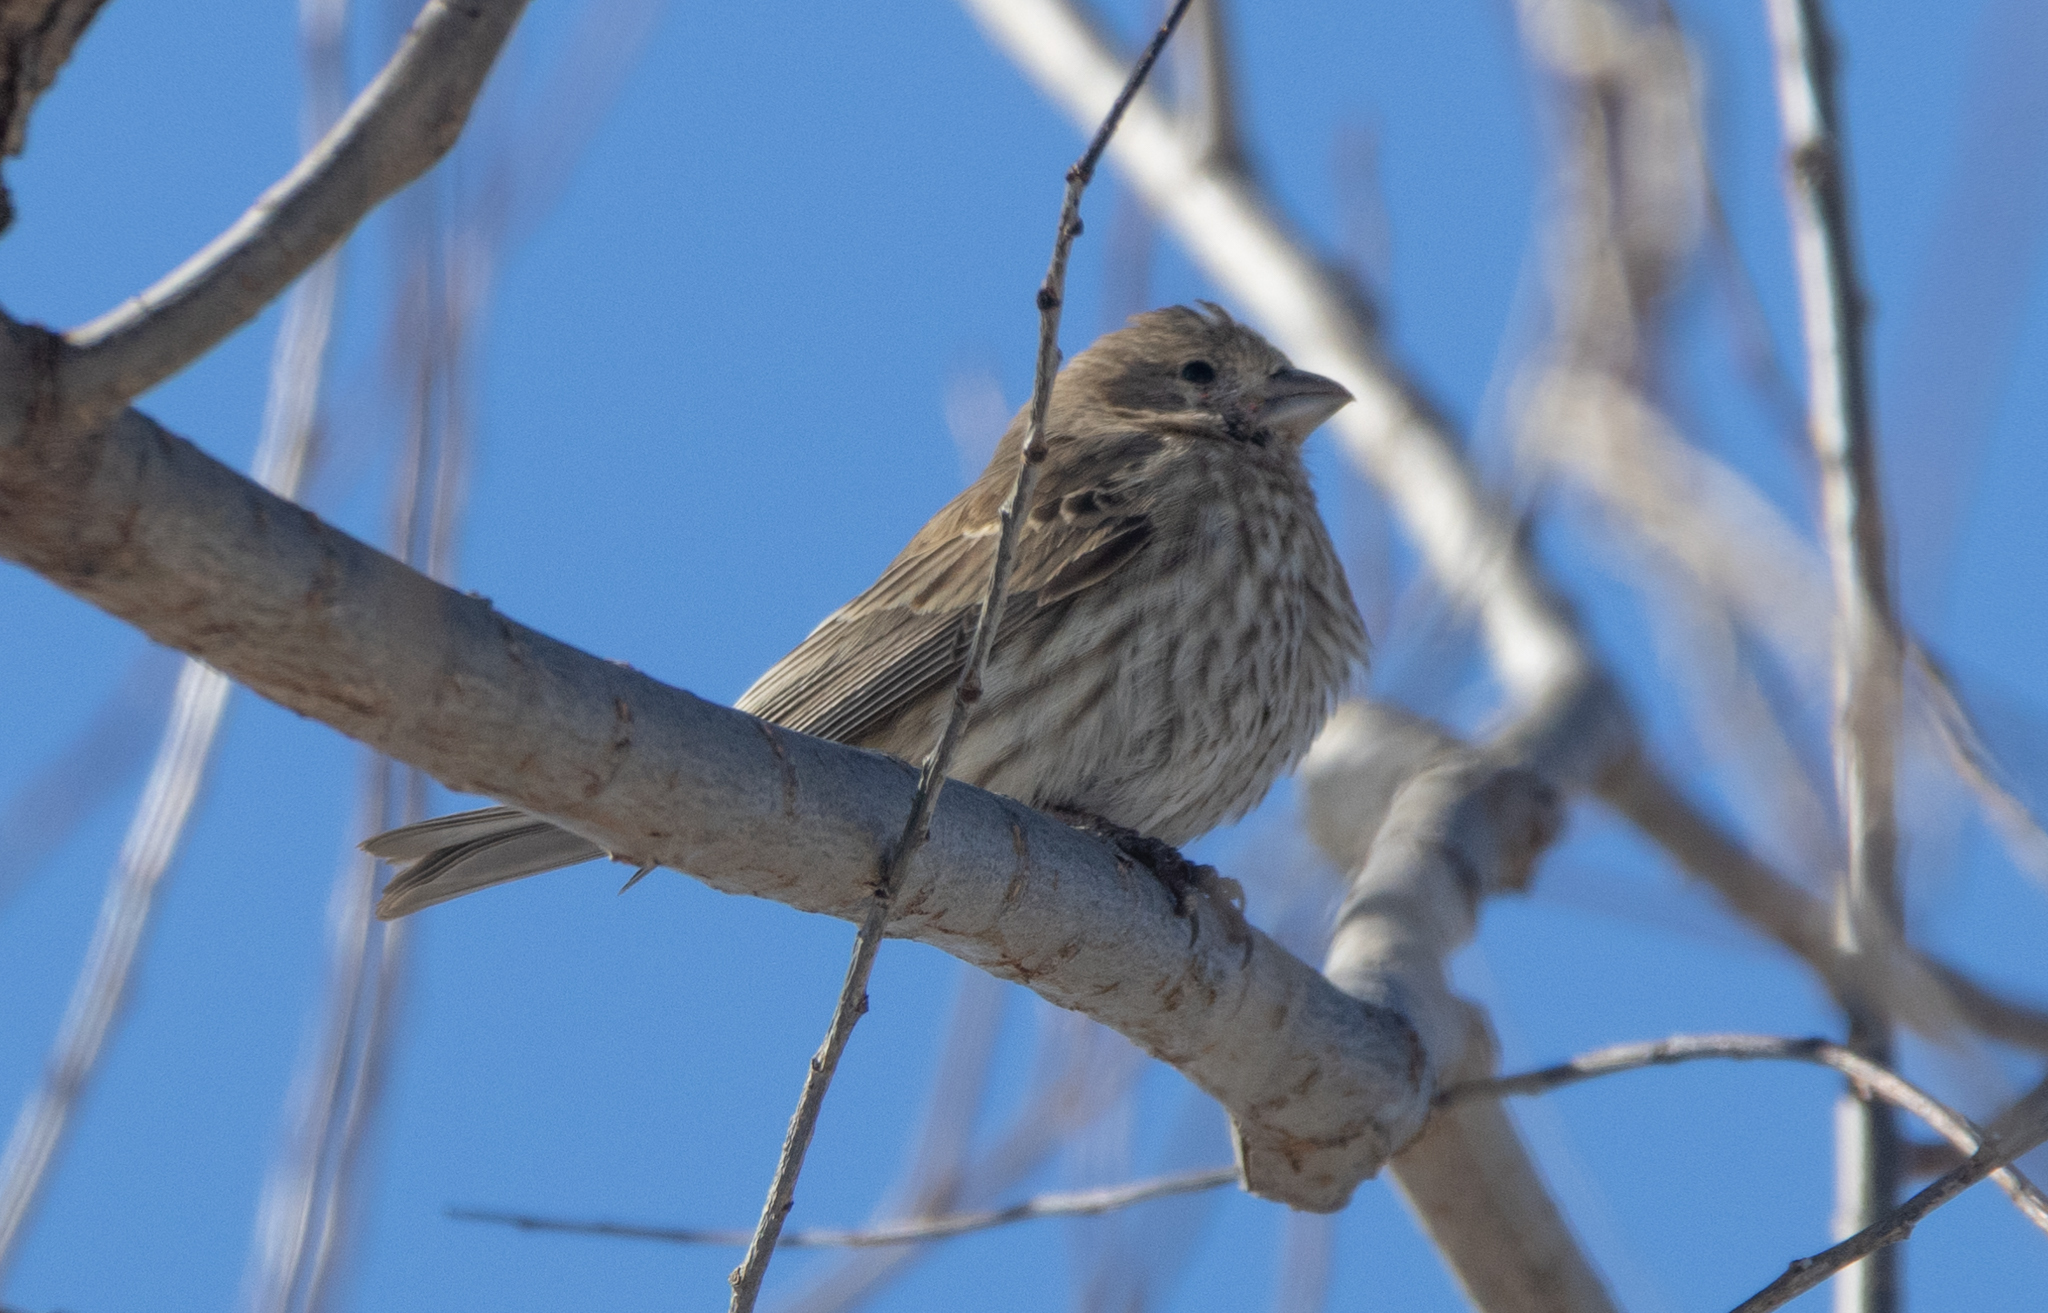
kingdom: Animalia
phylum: Chordata
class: Aves
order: Passeriformes
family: Fringillidae
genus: Haemorhous
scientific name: Haemorhous mexicanus
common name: House finch
